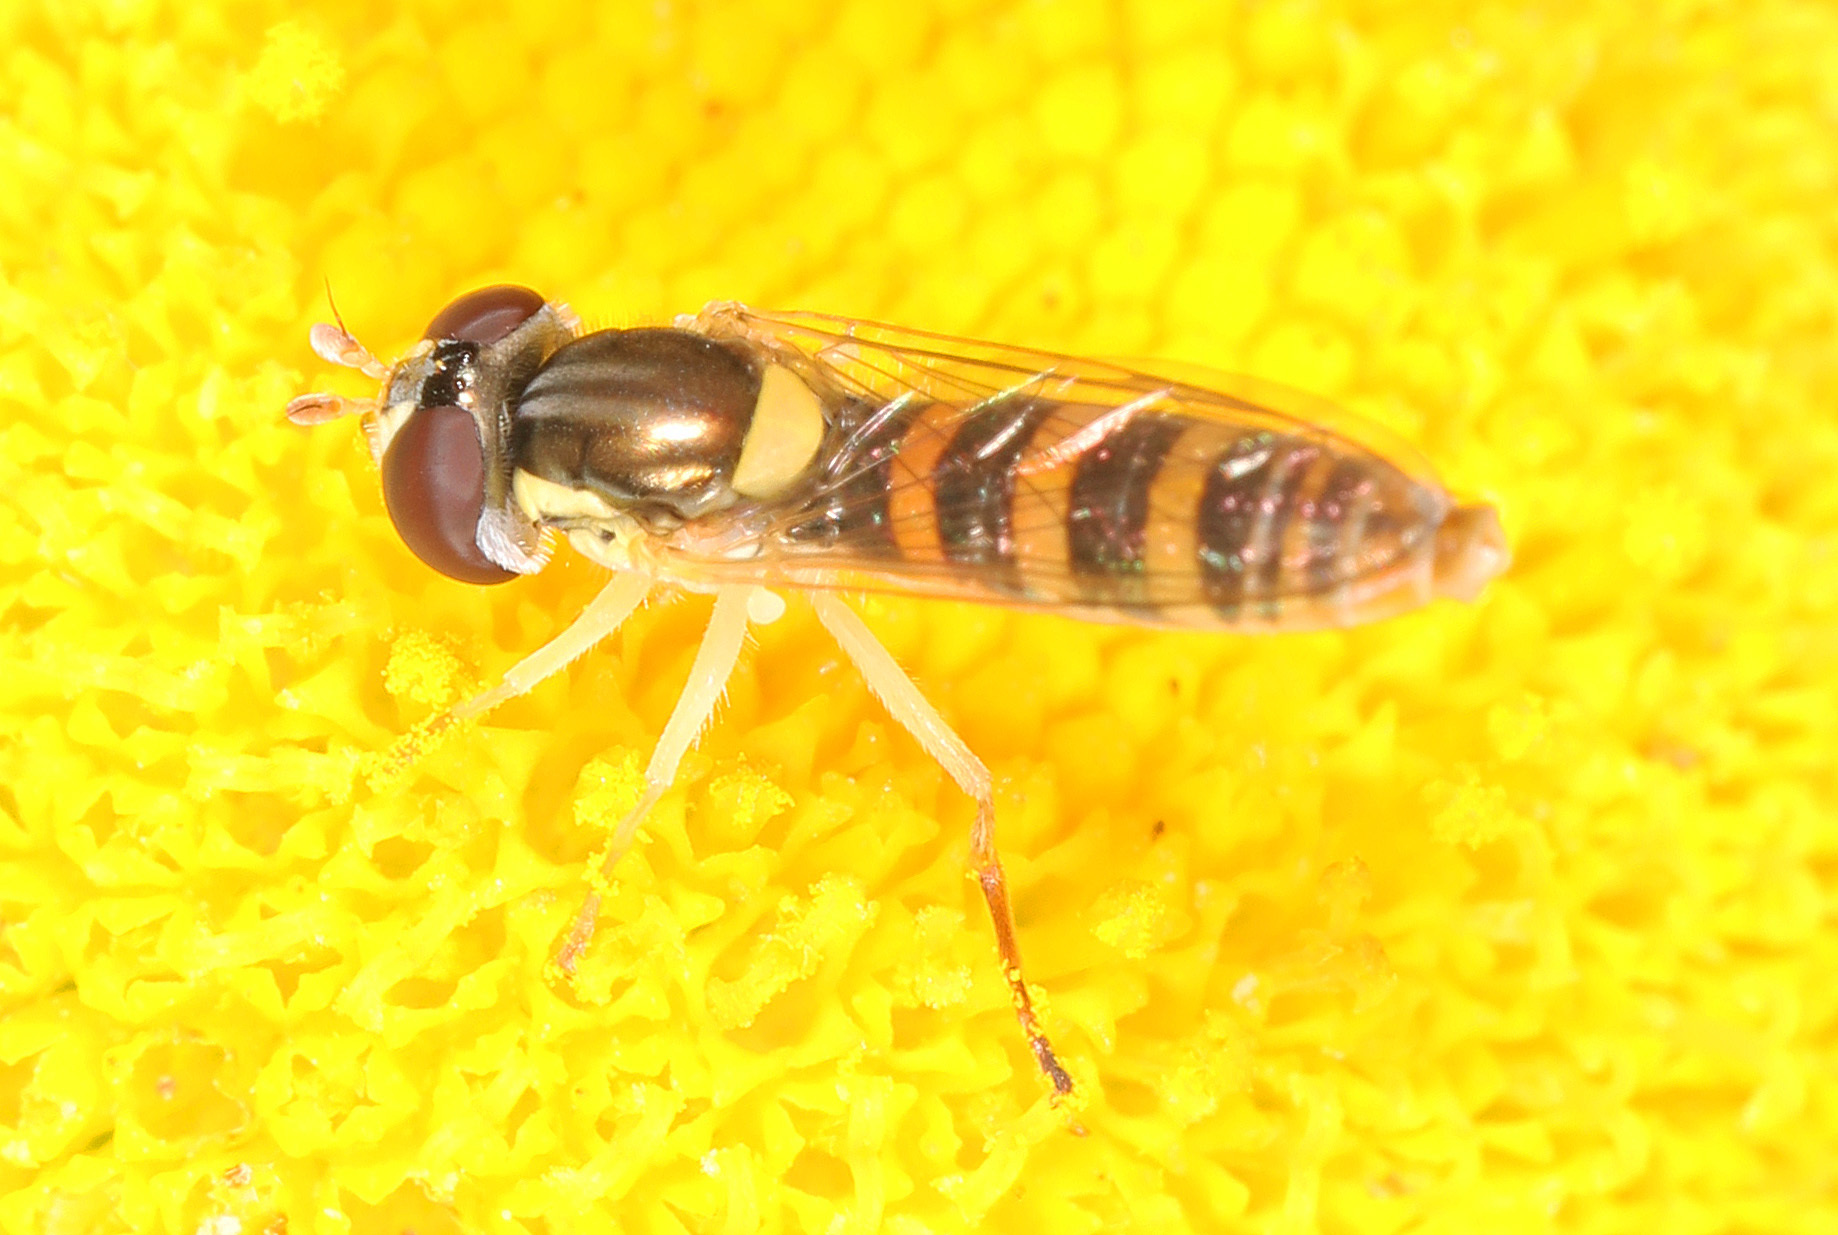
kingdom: Animalia
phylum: Arthropoda
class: Insecta
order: Diptera
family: Syrphidae
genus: Sphaerophoria
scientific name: Sphaerophoria contigua
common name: Tufted globetail
